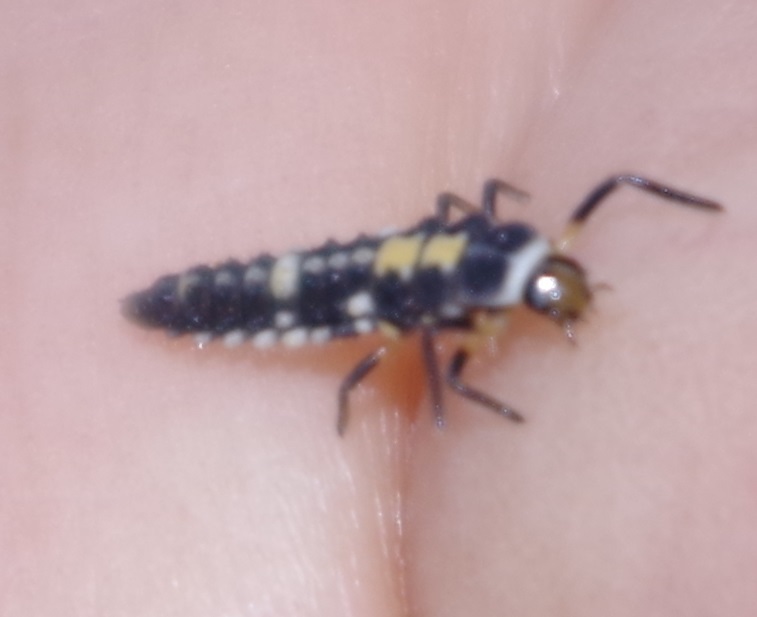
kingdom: Animalia
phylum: Arthropoda
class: Insecta
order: Coleoptera
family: Coccinellidae
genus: Propylaea
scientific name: Propylaea quatuordecimpunctata
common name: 14-spotted ladybird beetle
